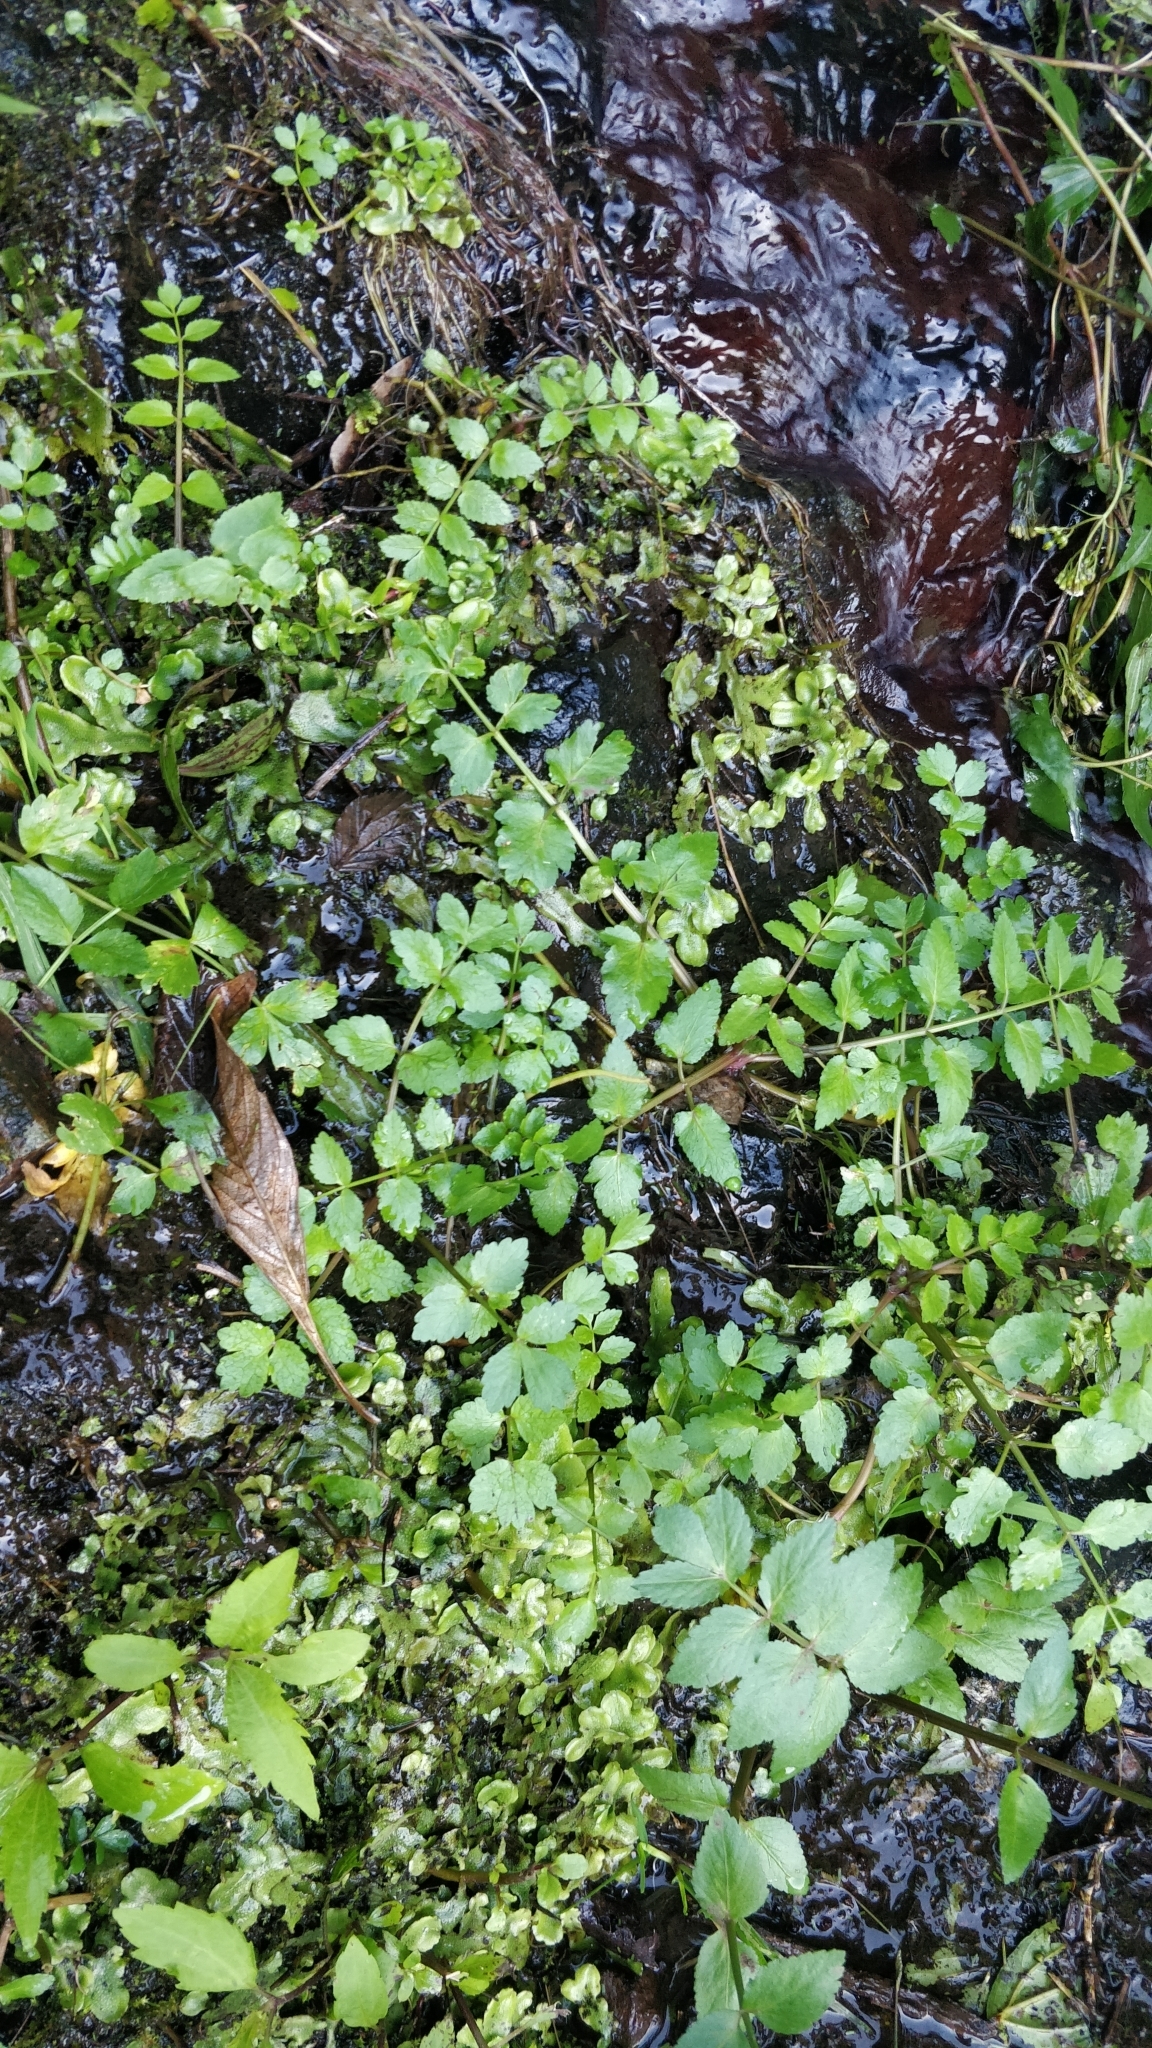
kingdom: Plantae
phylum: Tracheophyta
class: Magnoliopsida
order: Apiales
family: Apiaceae
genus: Helosciadium
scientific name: Helosciadium nodiflorum
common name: Fool's-watercress
